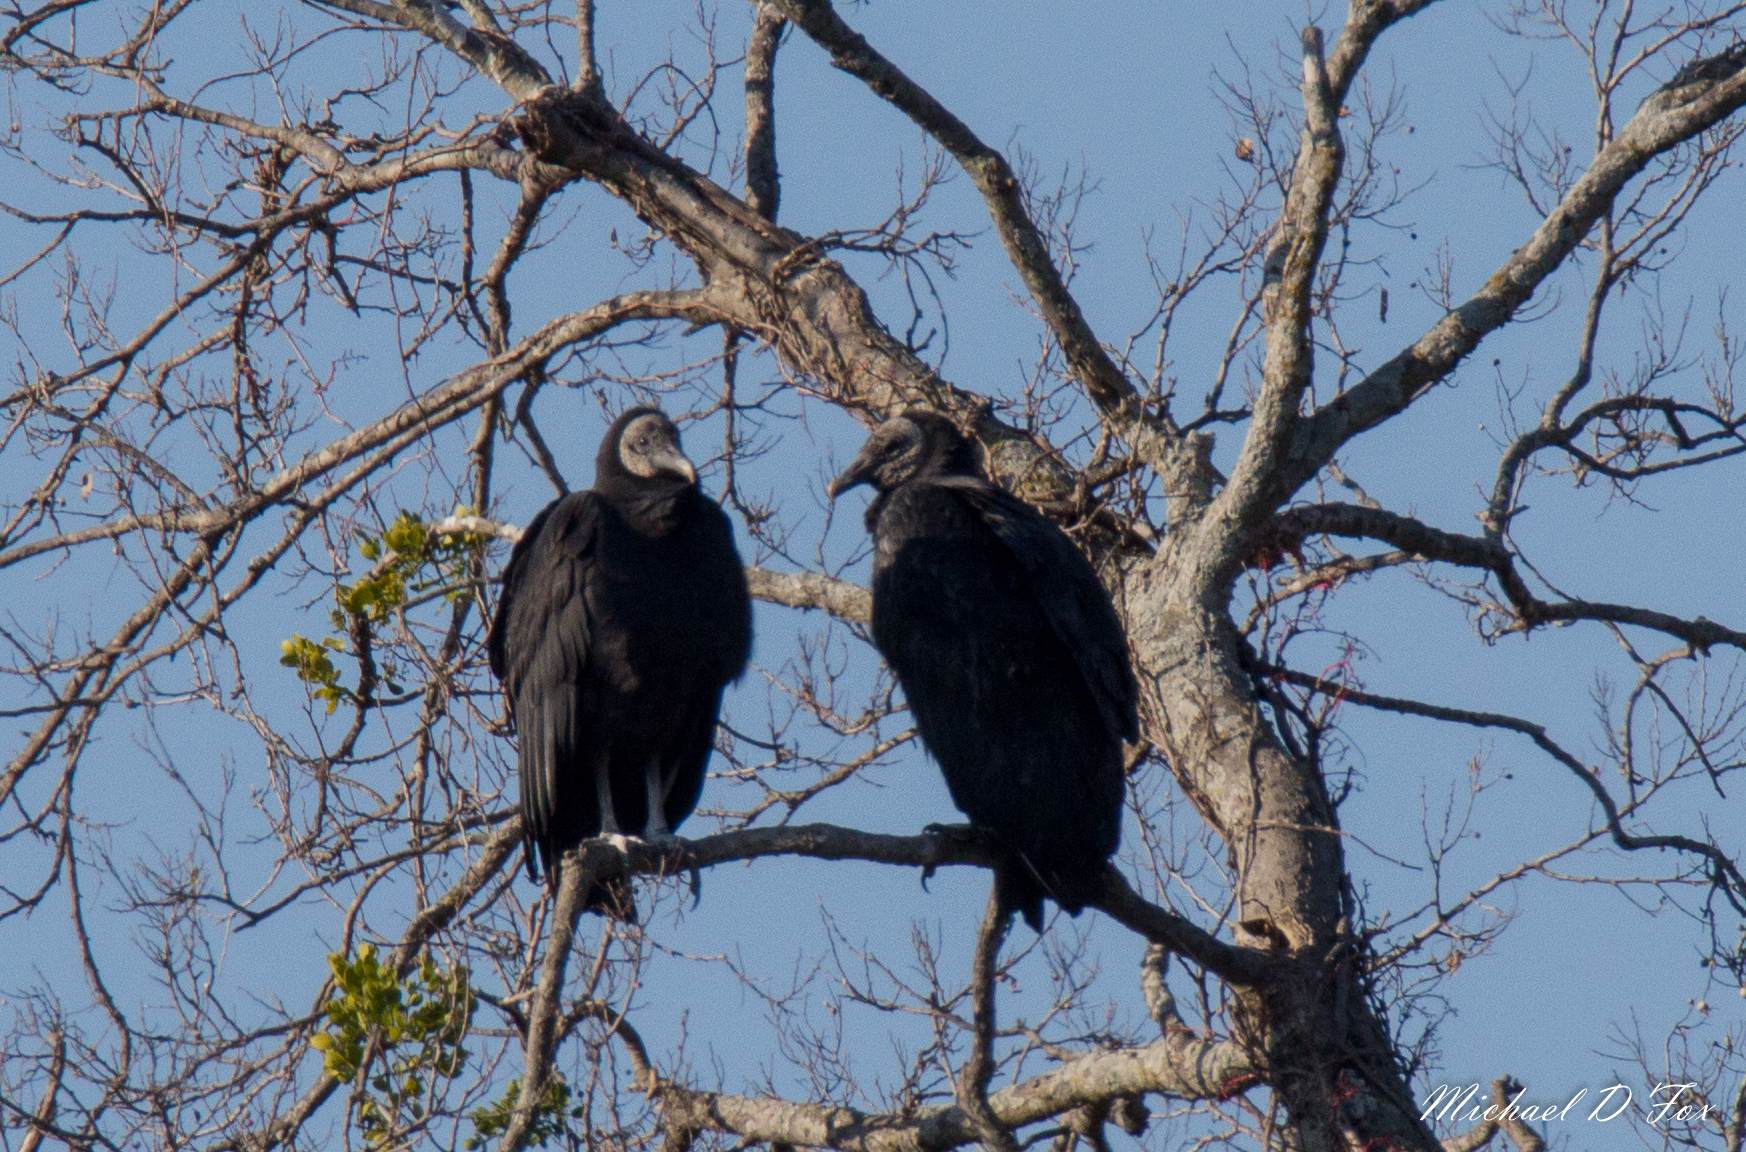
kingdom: Animalia
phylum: Chordata
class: Aves
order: Accipitriformes
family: Cathartidae
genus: Coragyps
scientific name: Coragyps atratus
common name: Black vulture
